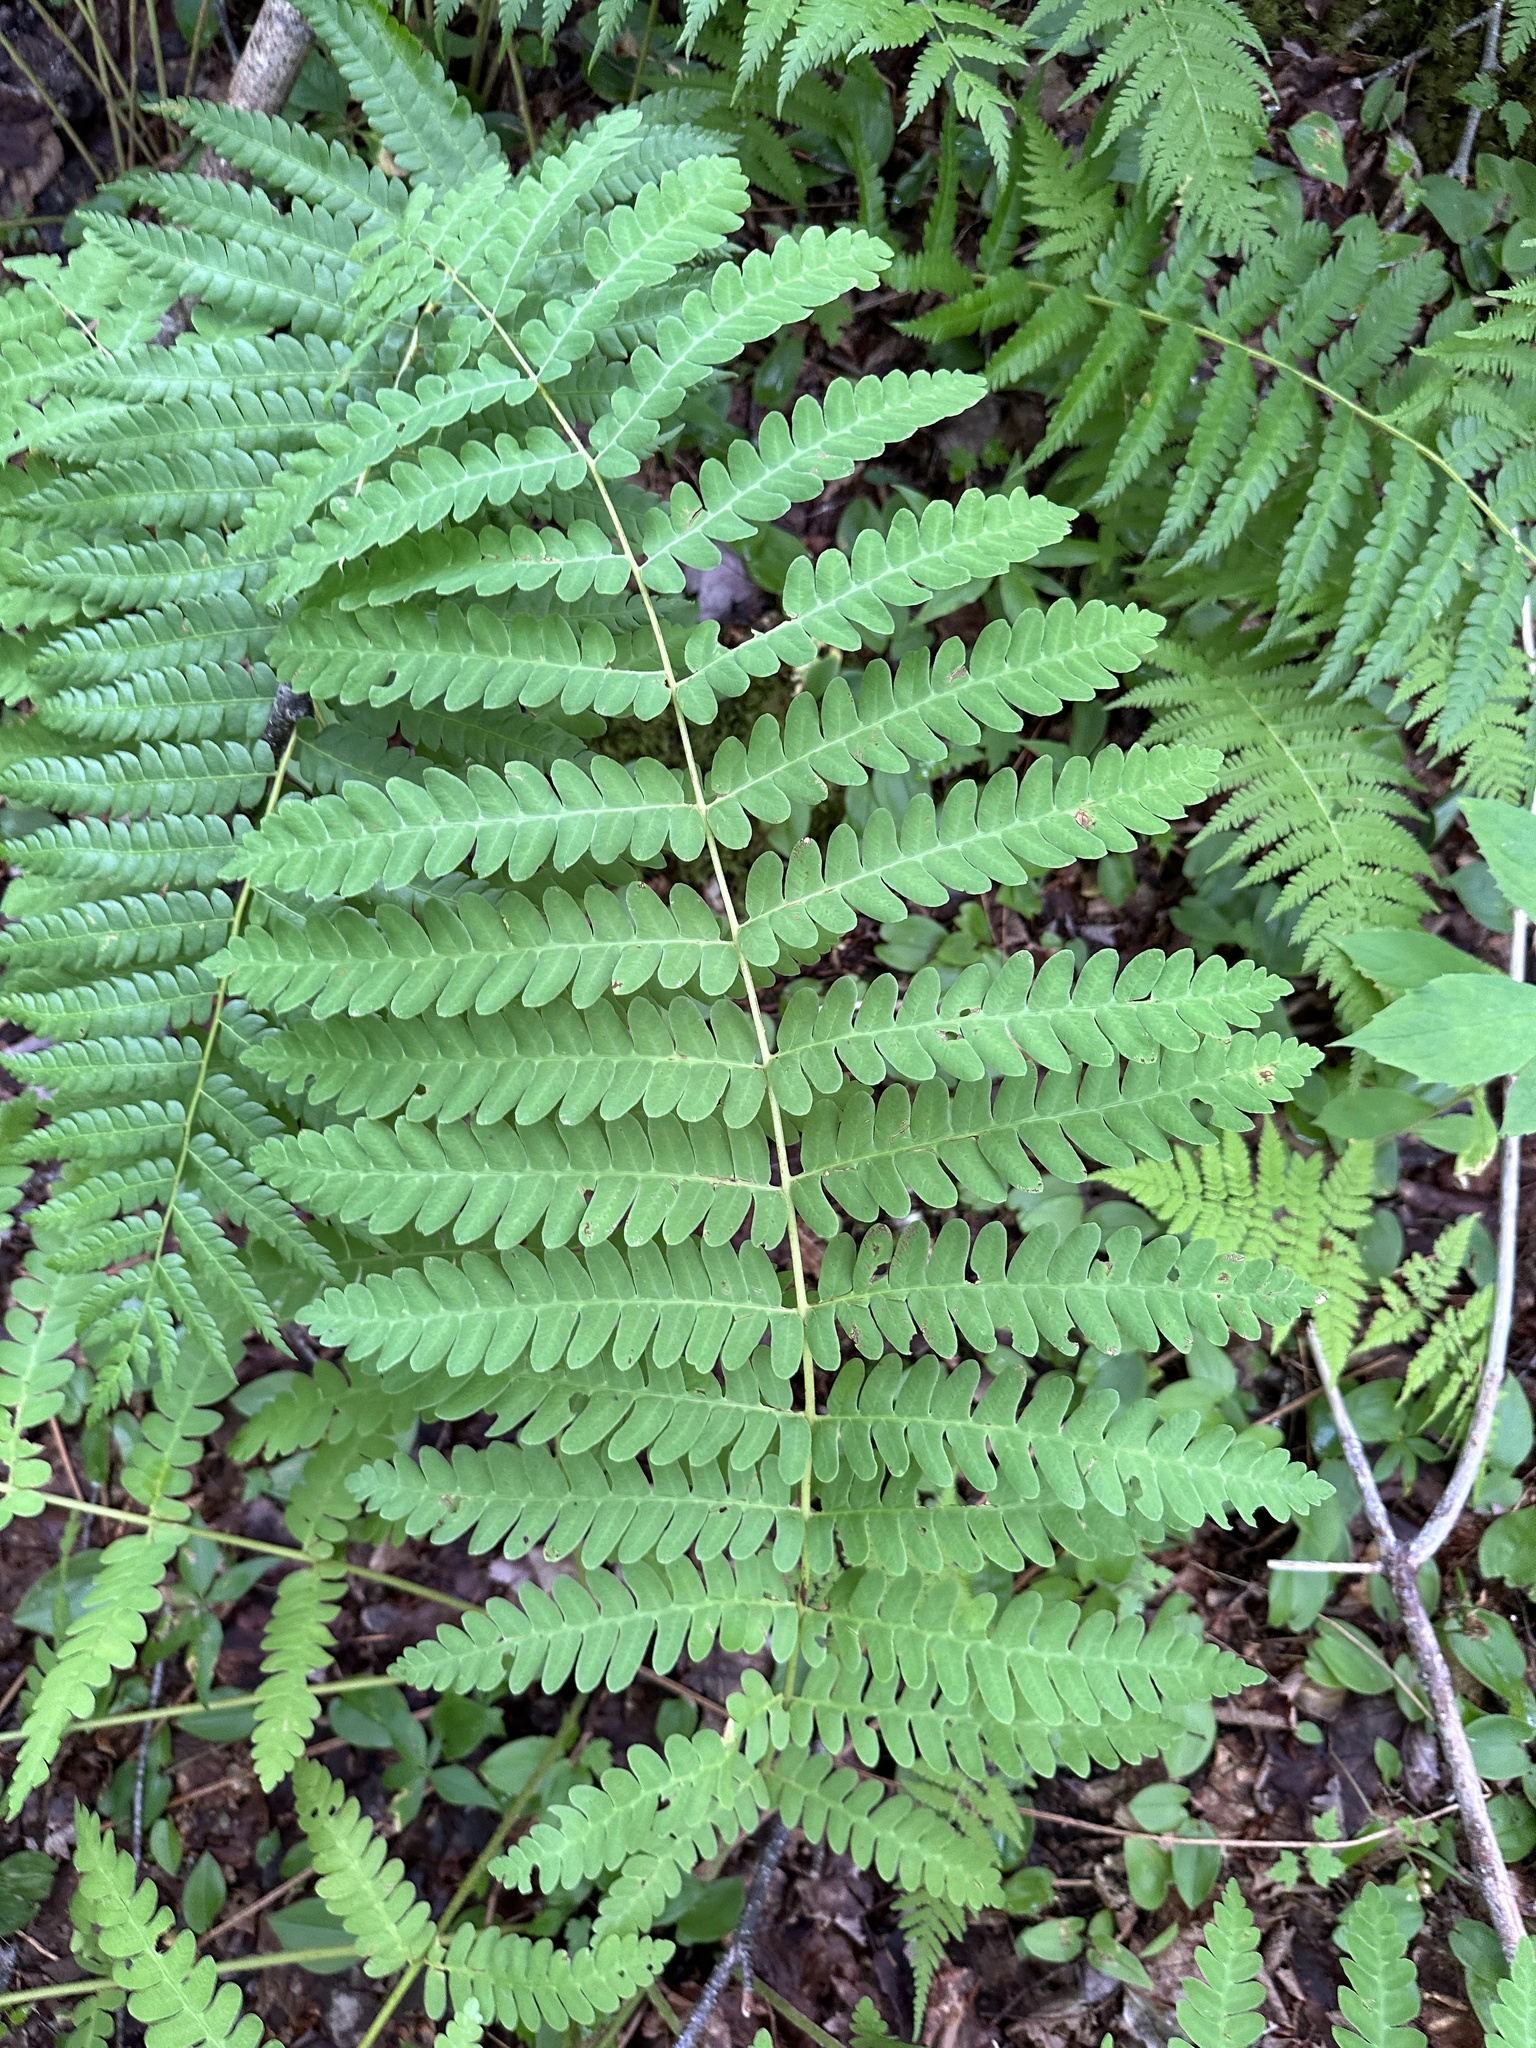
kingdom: Plantae
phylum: Tracheophyta
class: Polypodiopsida
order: Osmundales
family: Osmundaceae
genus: Claytosmunda
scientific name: Claytosmunda claytoniana
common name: Clayton's fern
